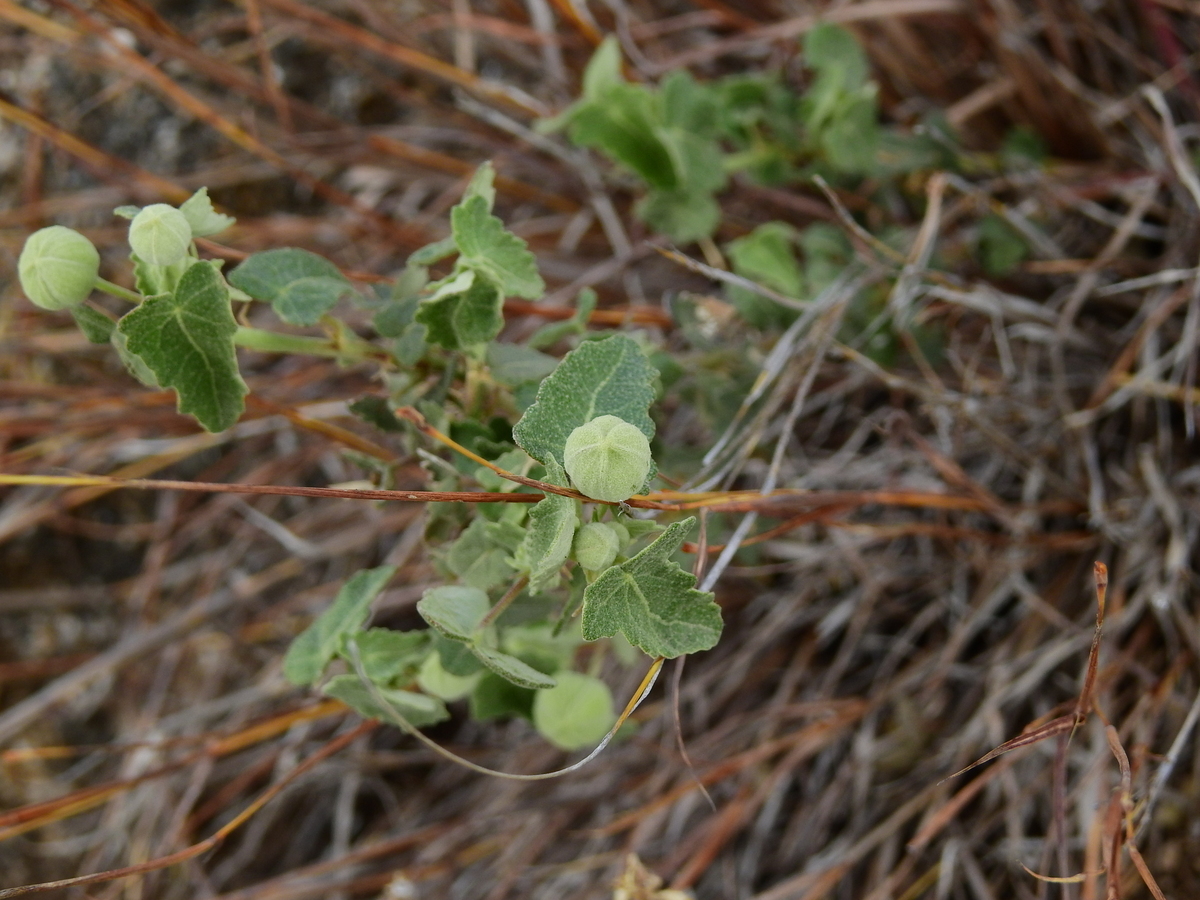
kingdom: Plantae
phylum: Tracheophyta
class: Magnoliopsida
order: Malvales
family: Malvaceae
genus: Pavonia
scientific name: Pavonia aurigloba
